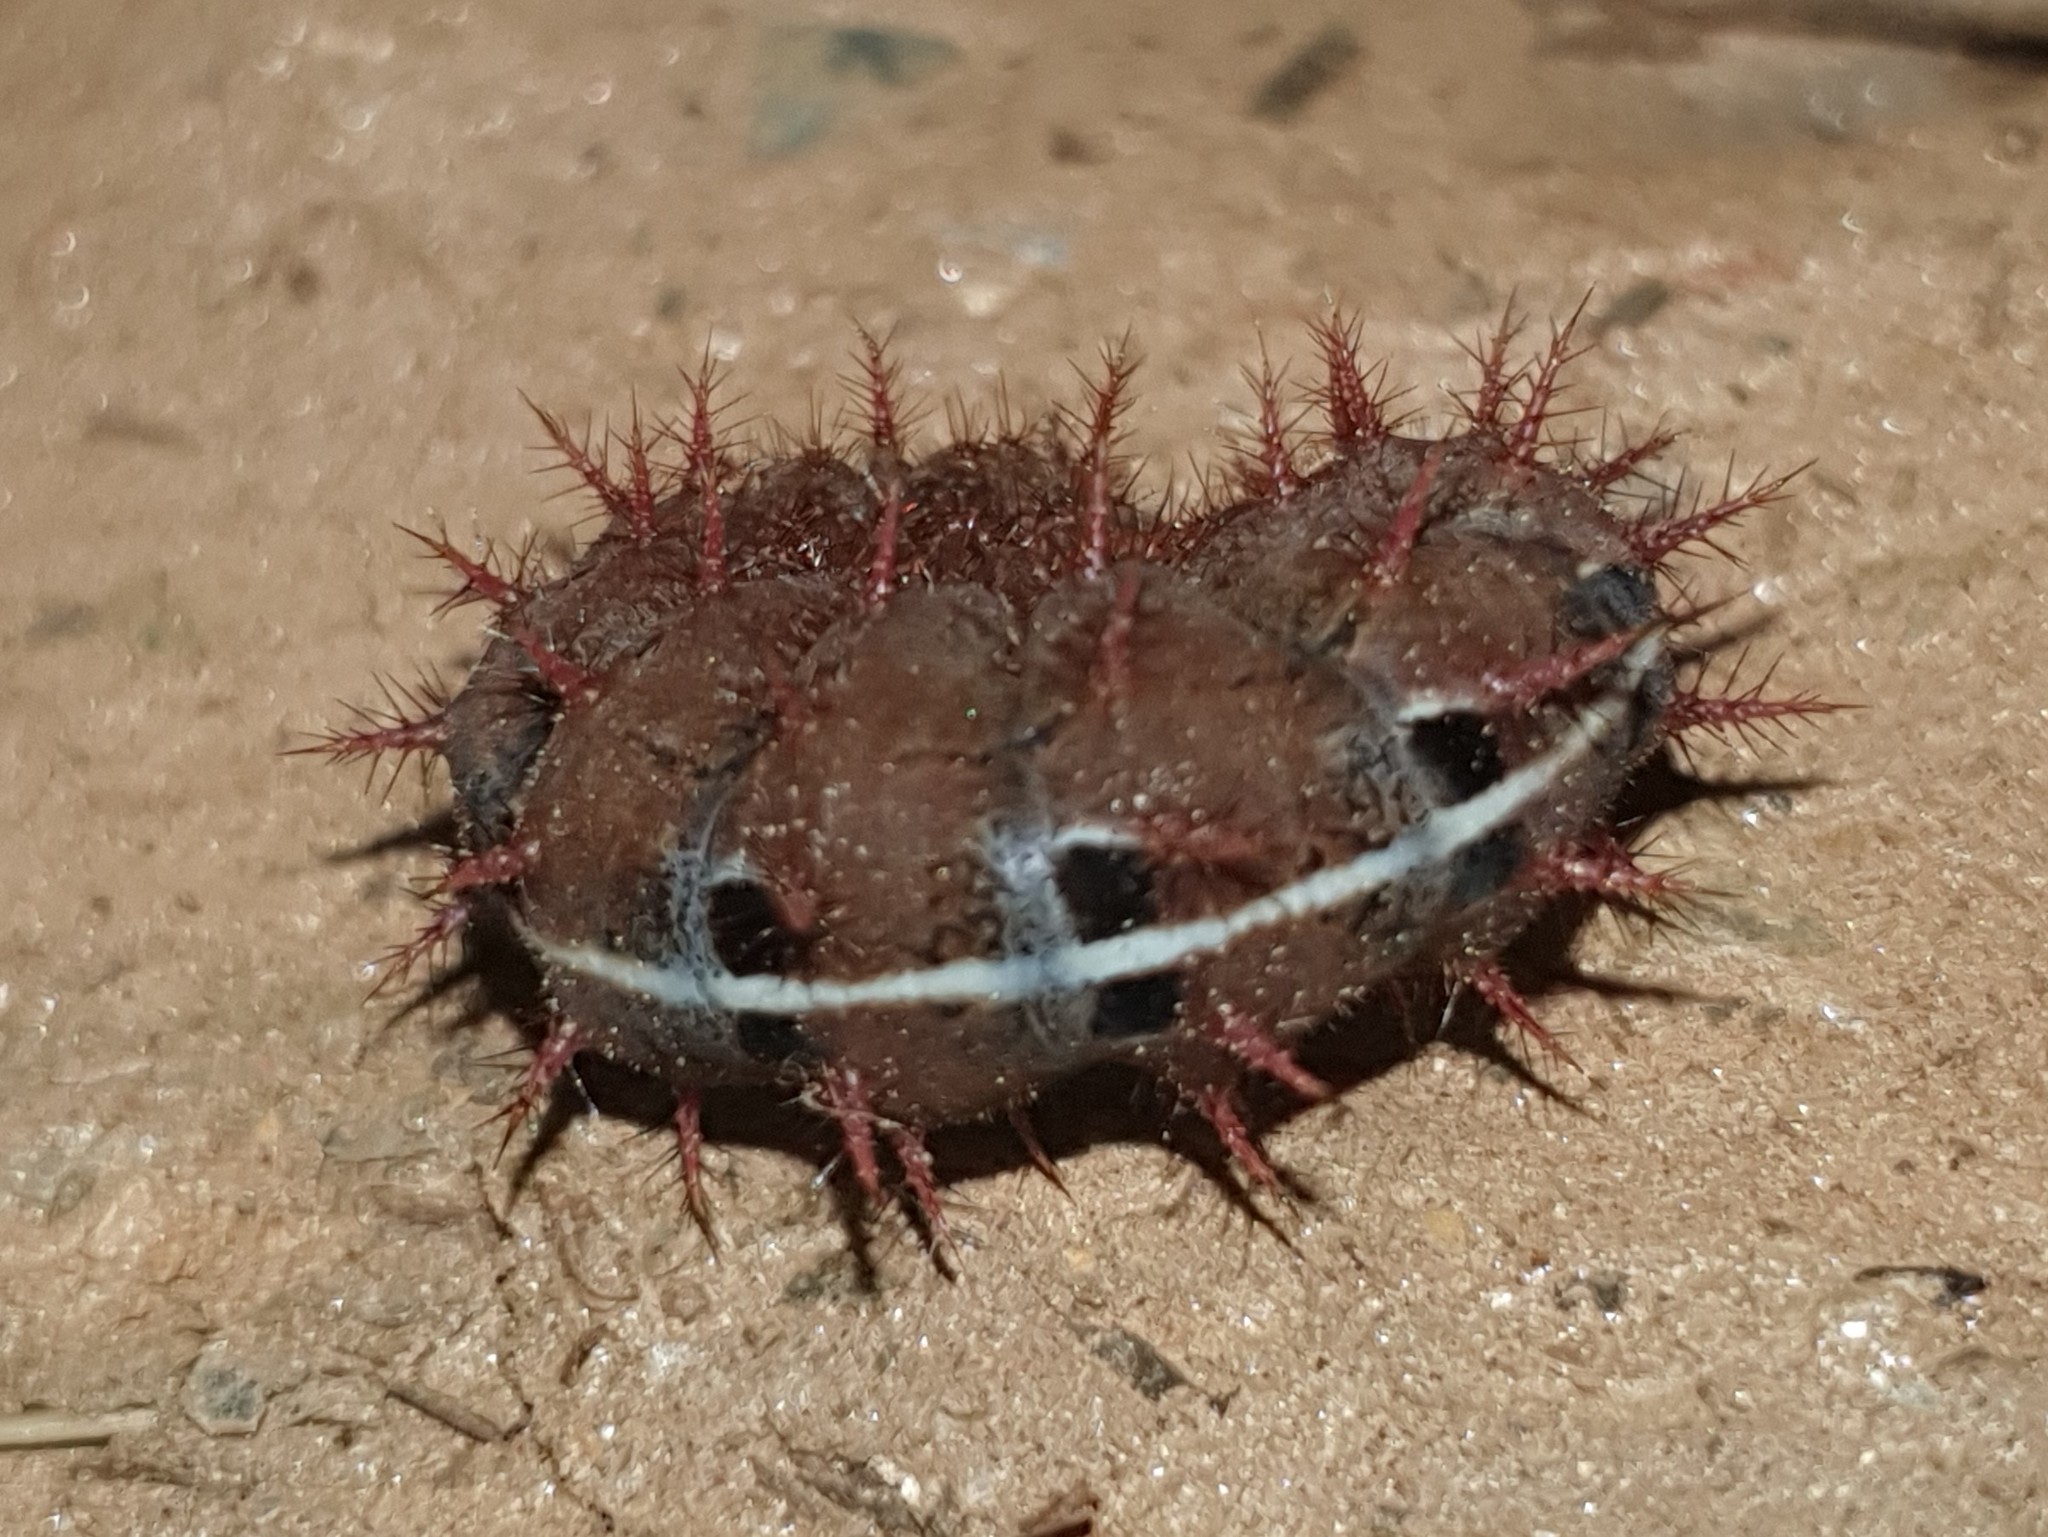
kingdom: Animalia
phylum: Arthropoda
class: Insecta
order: Lepidoptera
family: Nymphalidae
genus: Fabriciana
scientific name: Fabriciana adippe
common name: High brown fritillary
